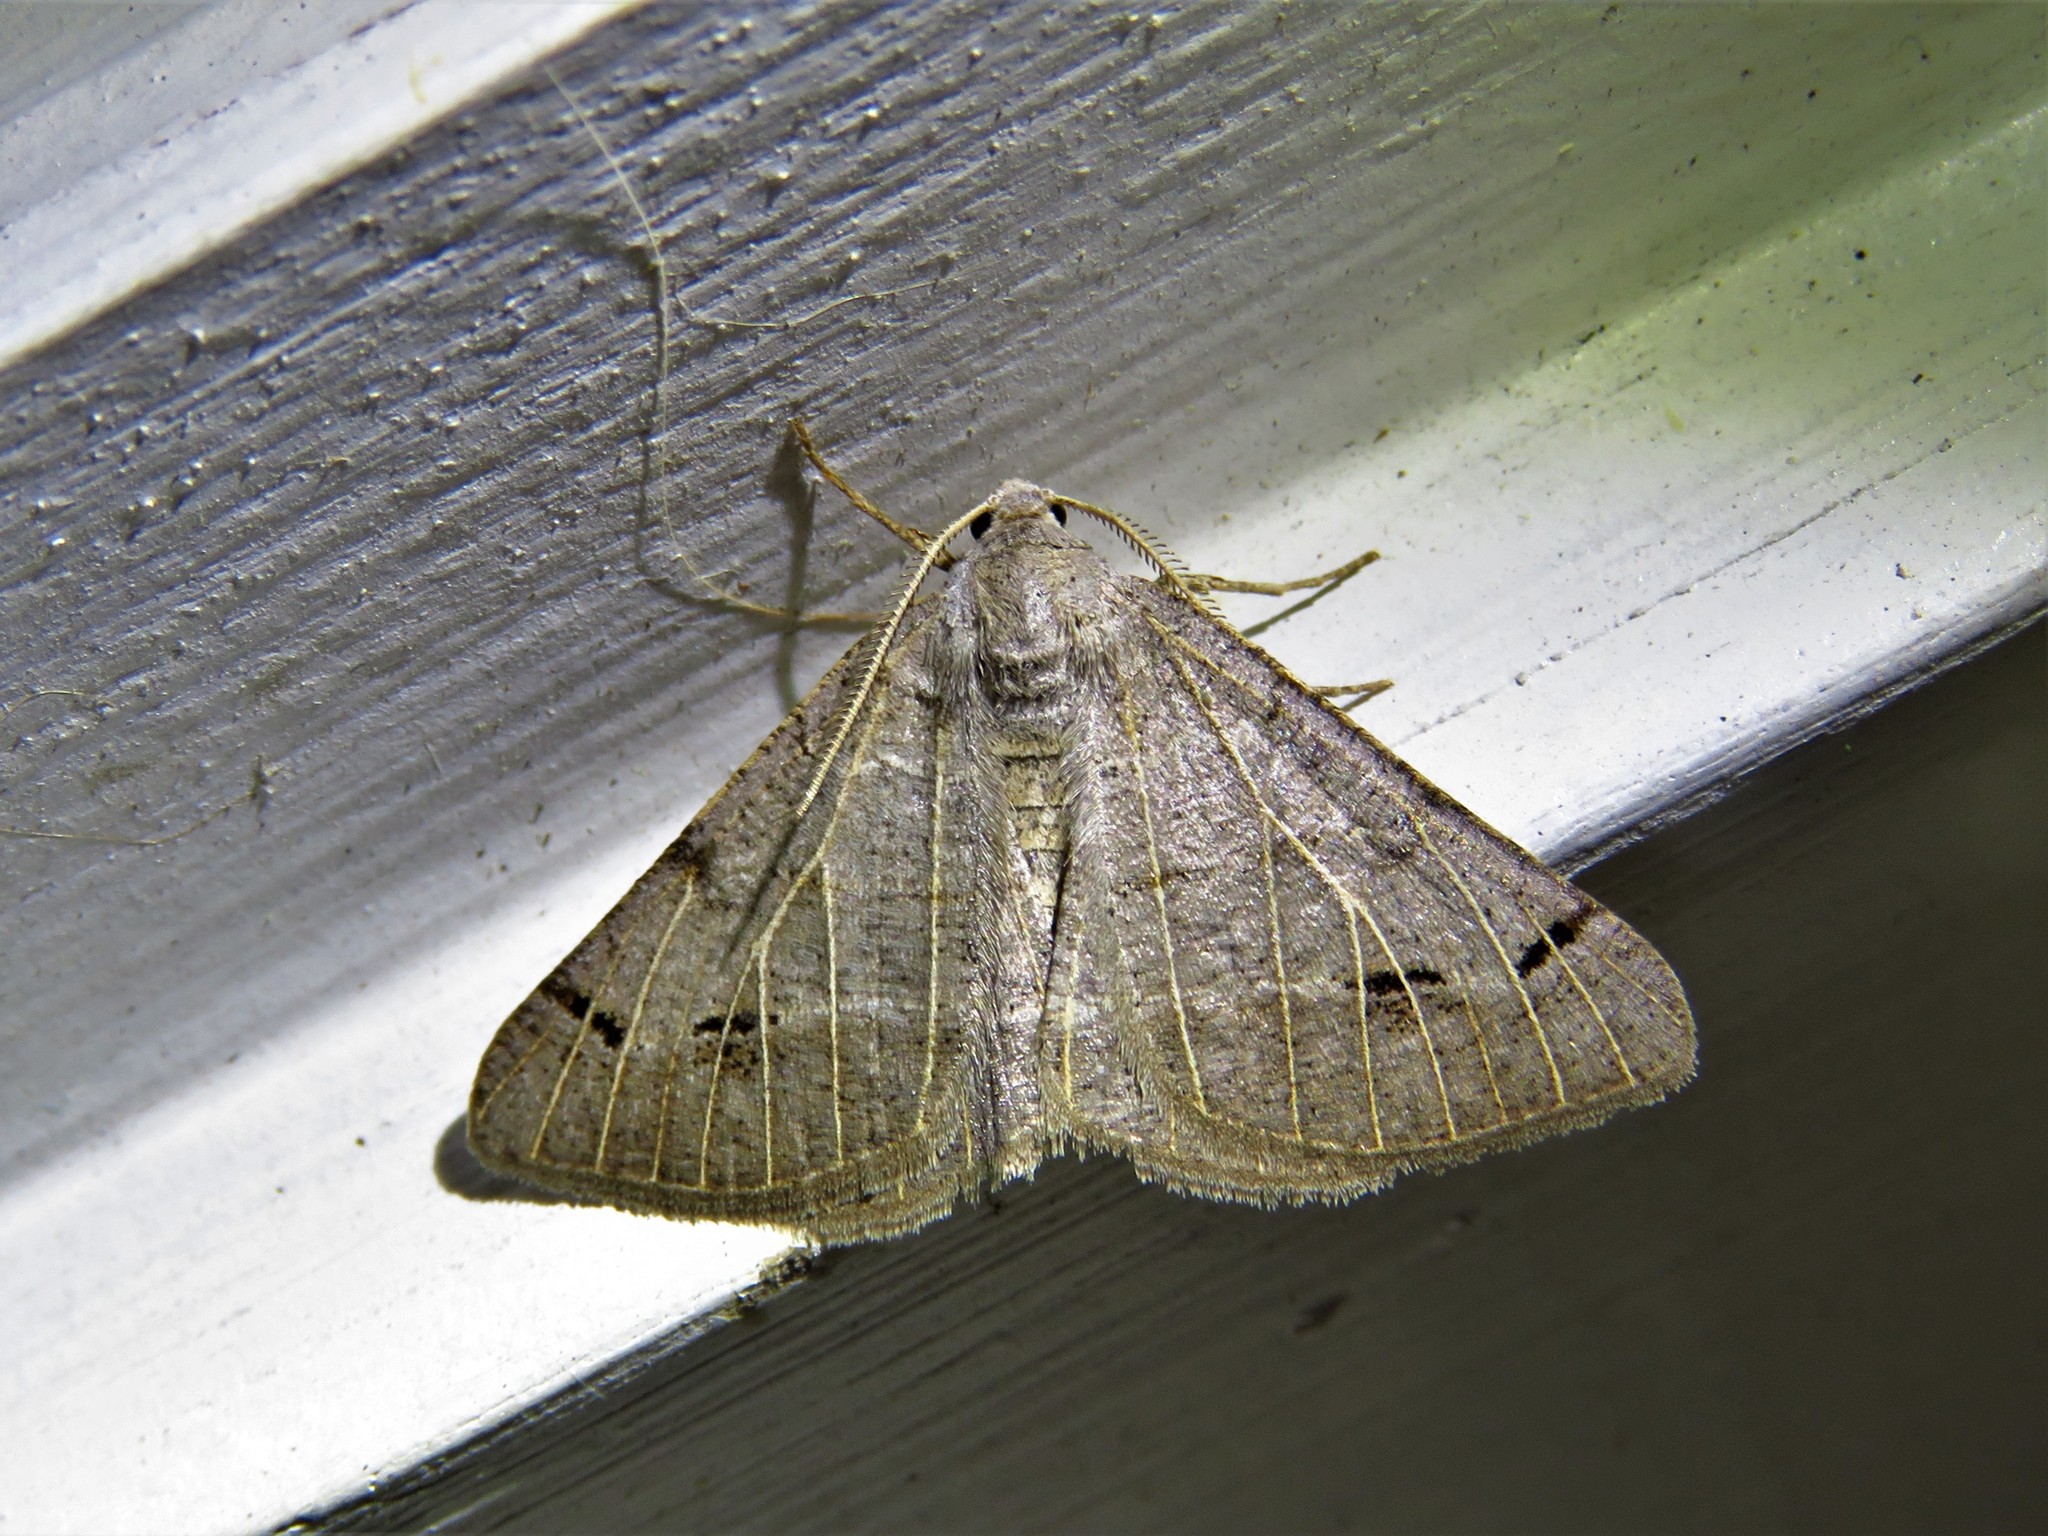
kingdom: Animalia
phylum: Arthropoda
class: Insecta
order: Lepidoptera
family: Geometridae
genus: Isturgia
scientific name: Isturgia dislocaria
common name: Pale-viened enconista
